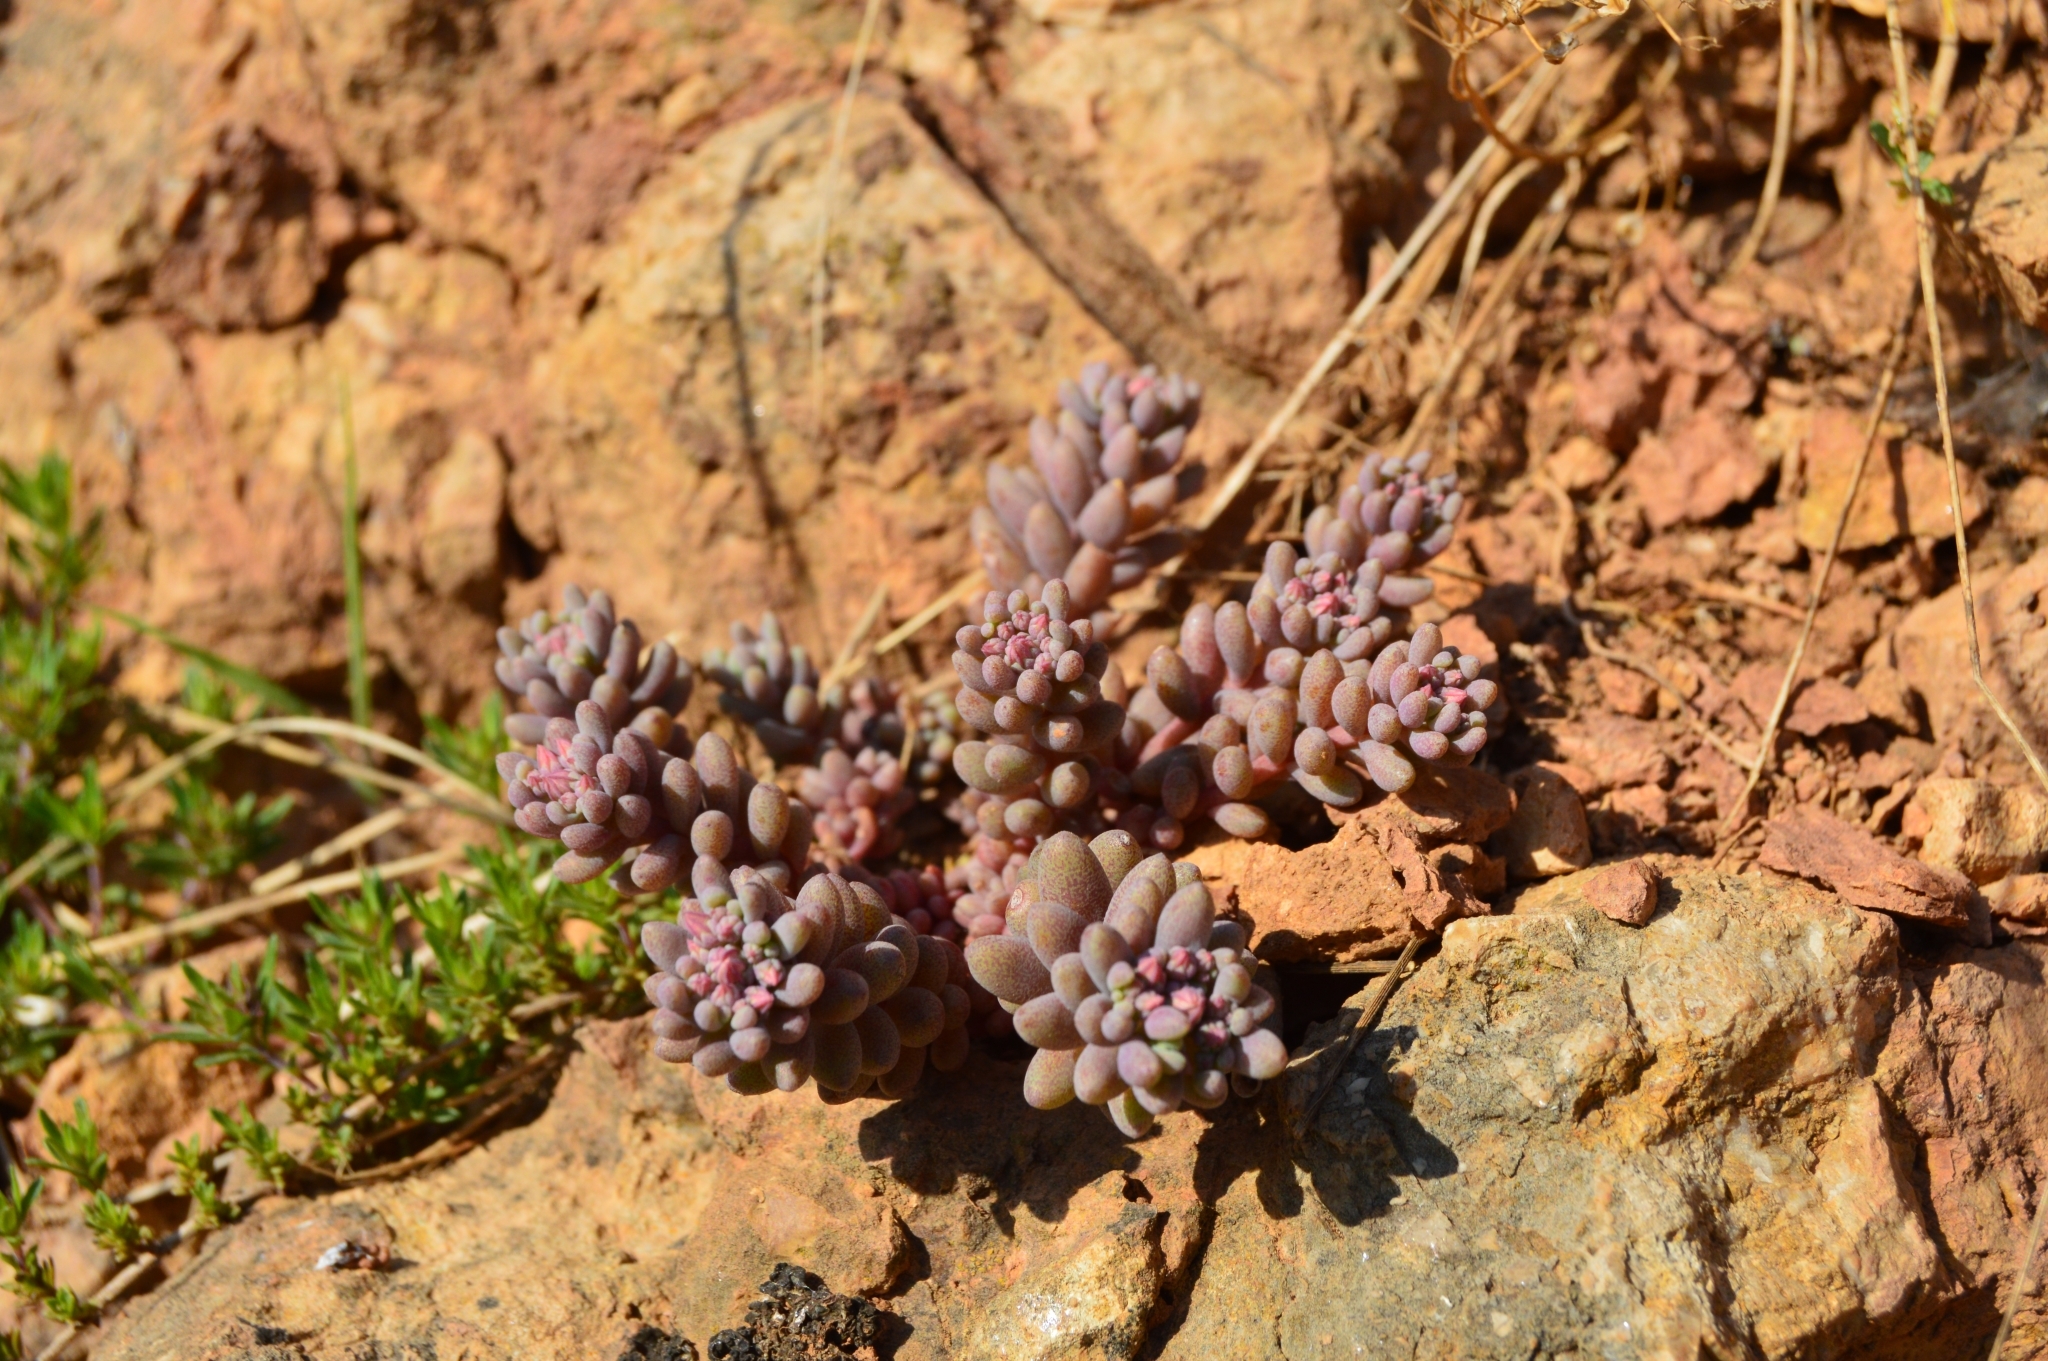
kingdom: Plantae
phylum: Tracheophyta
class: Magnoliopsida
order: Saxifragales
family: Crassulaceae
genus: Sedum
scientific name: Sedum hispanicum
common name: Spanish stonecrop
